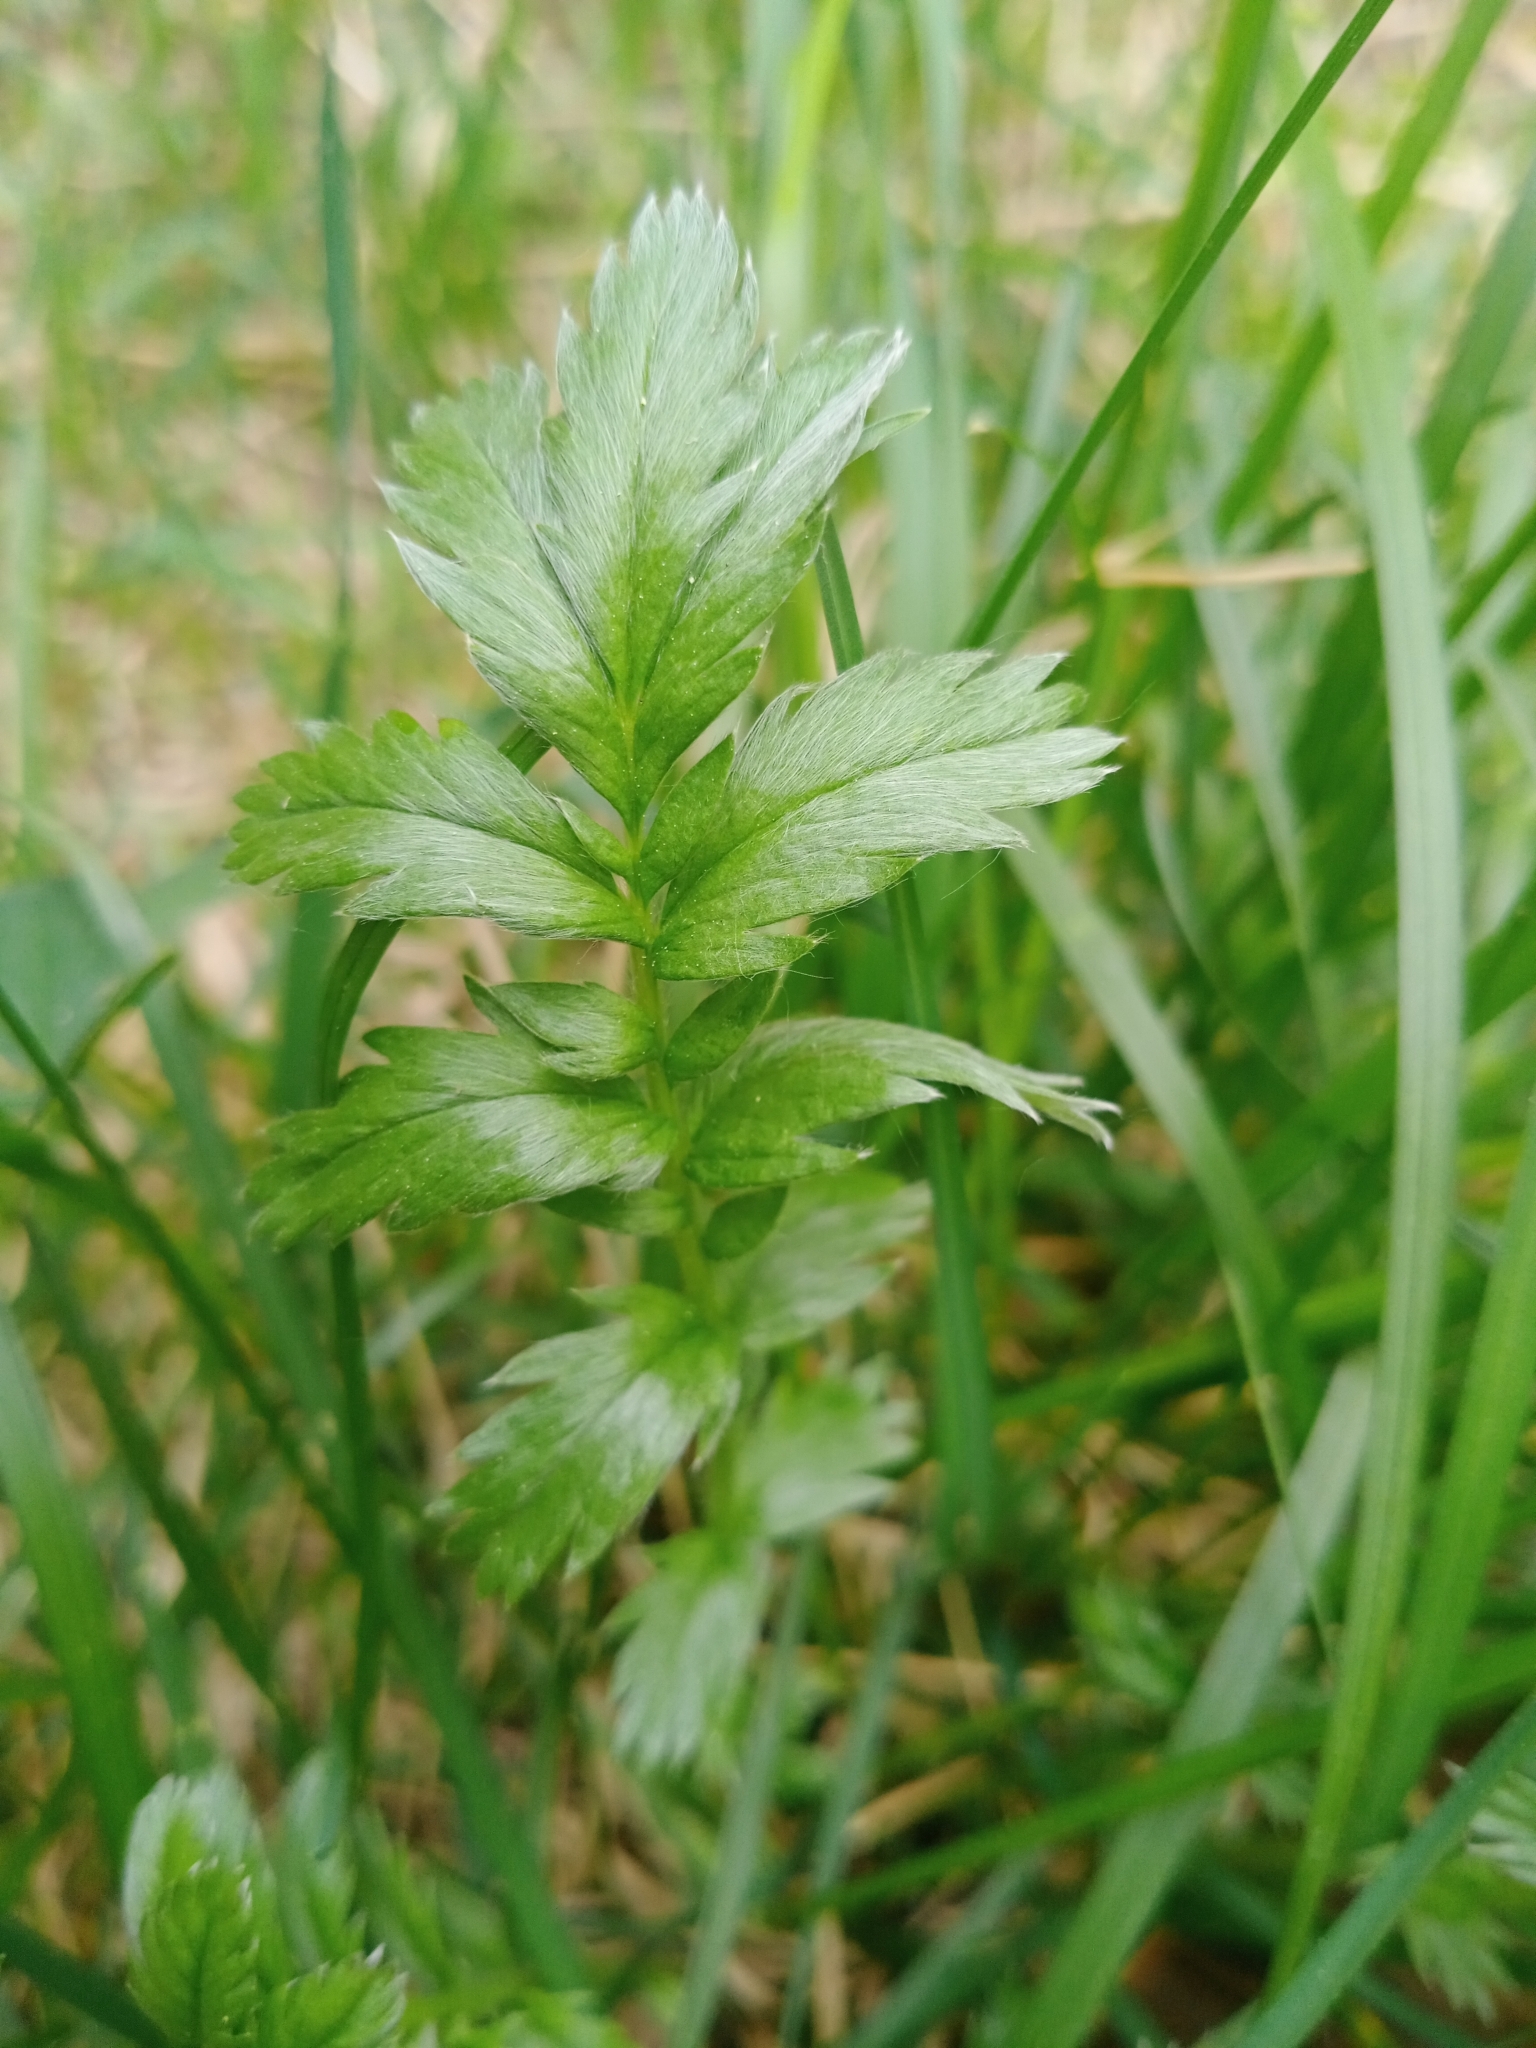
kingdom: Plantae
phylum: Tracheophyta
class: Magnoliopsida
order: Rosales
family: Rosaceae
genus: Argentina
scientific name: Argentina anserina
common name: Common silverweed
